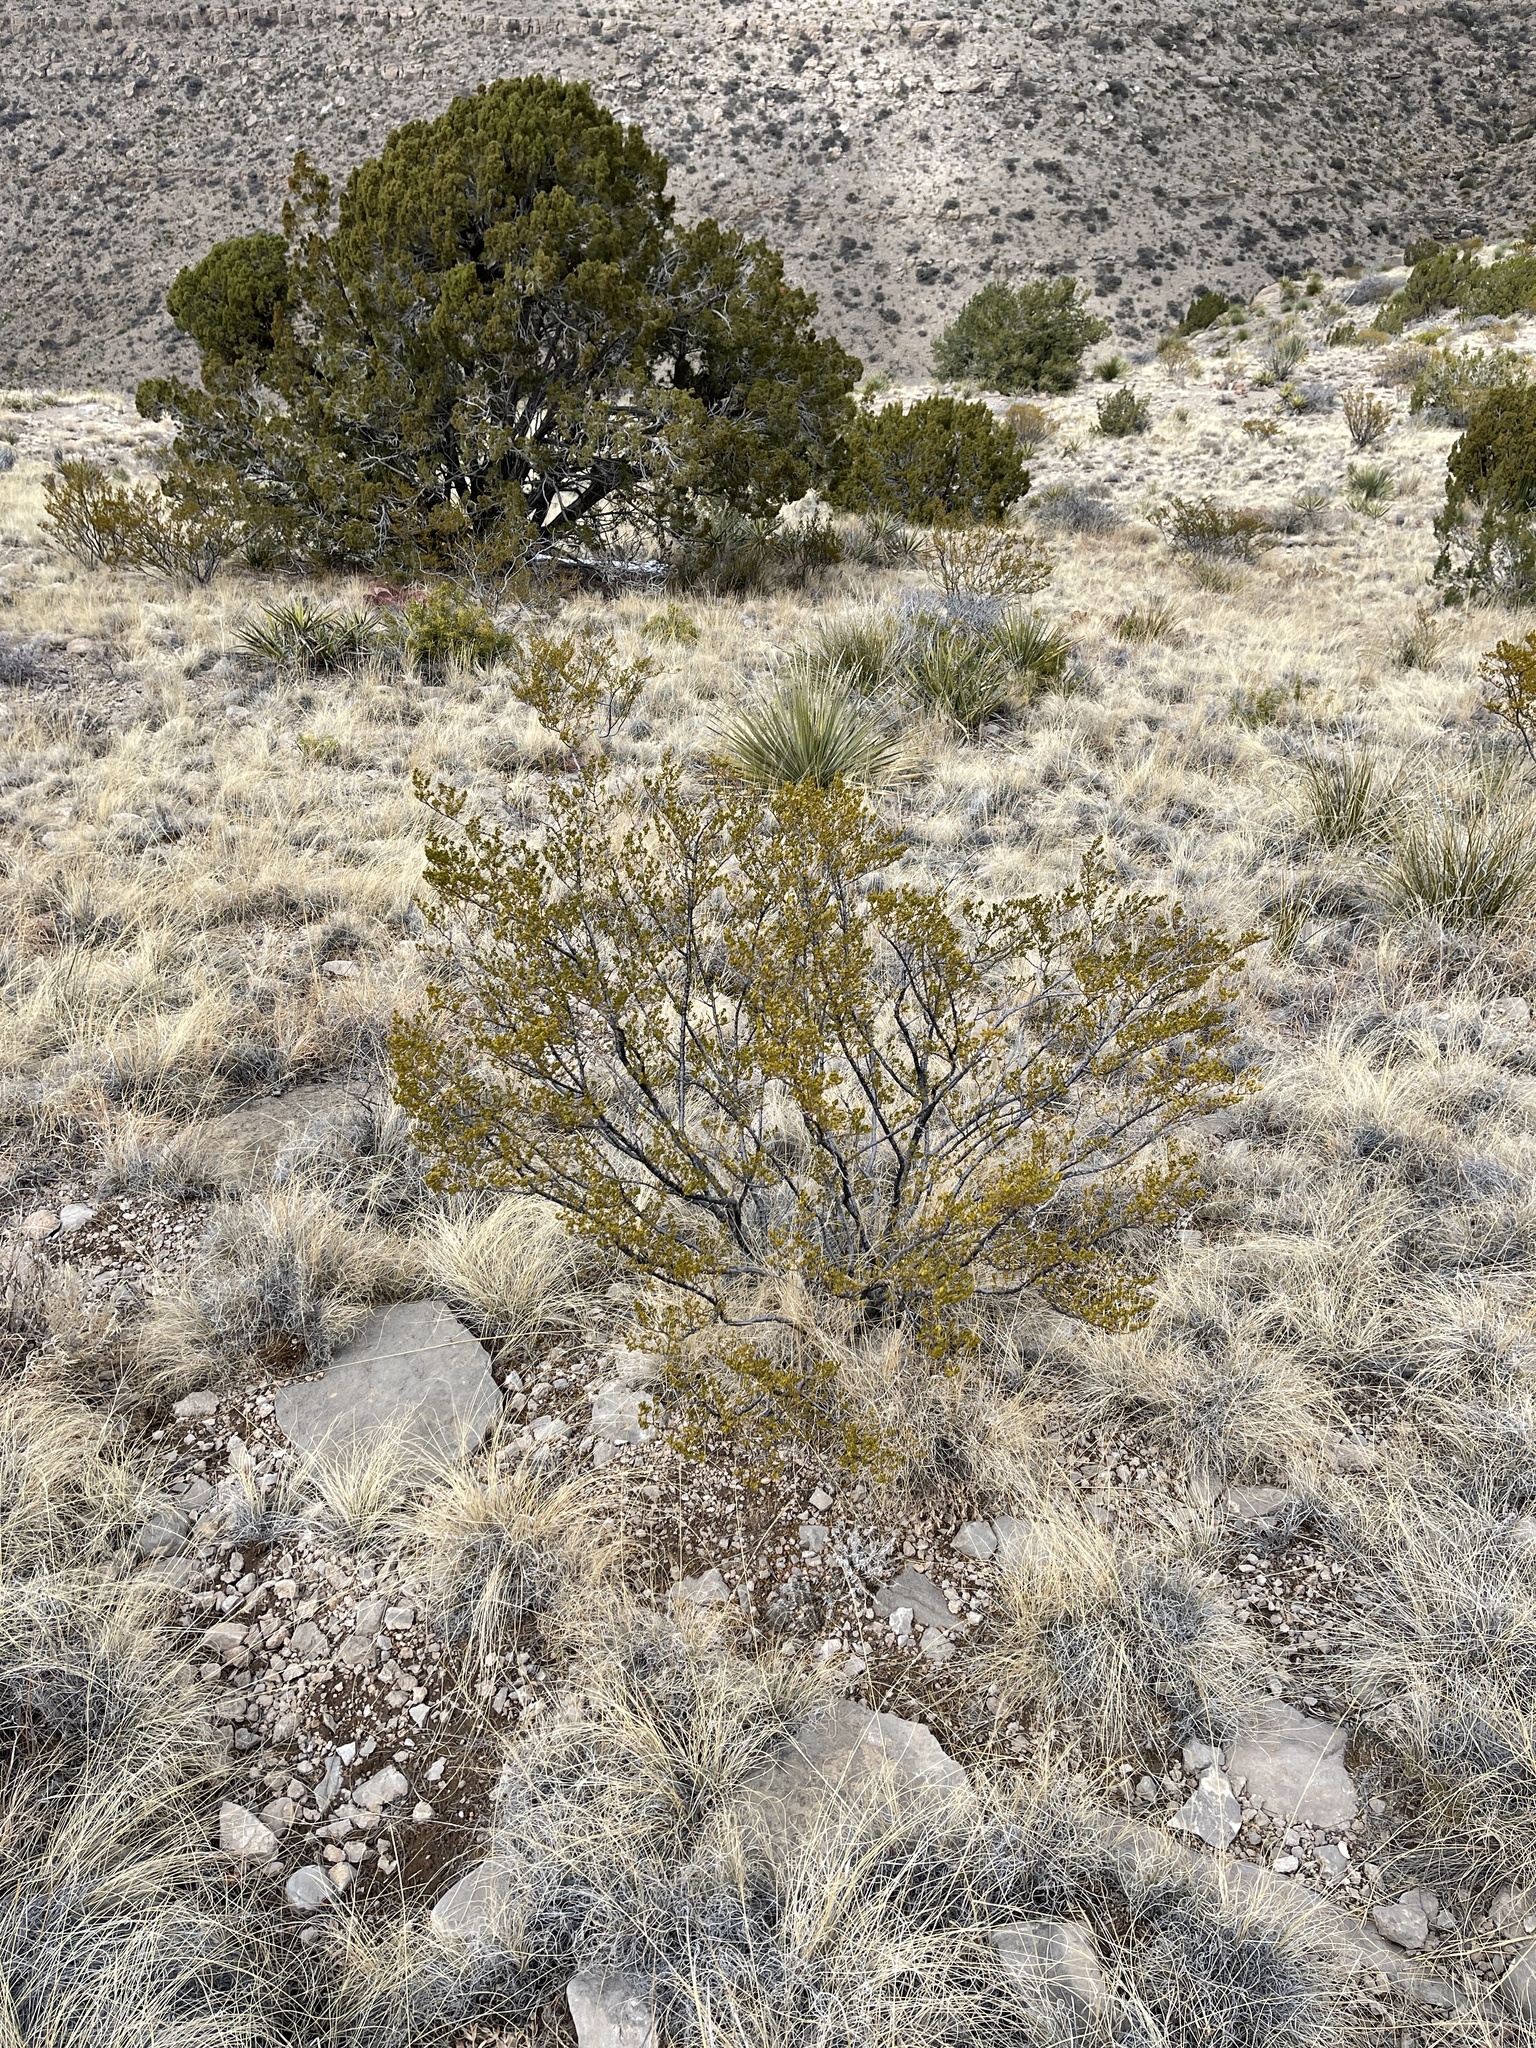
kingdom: Plantae
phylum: Tracheophyta
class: Magnoliopsida
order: Zygophyllales
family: Zygophyllaceae
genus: Larrea
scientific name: Larrea tridentata
